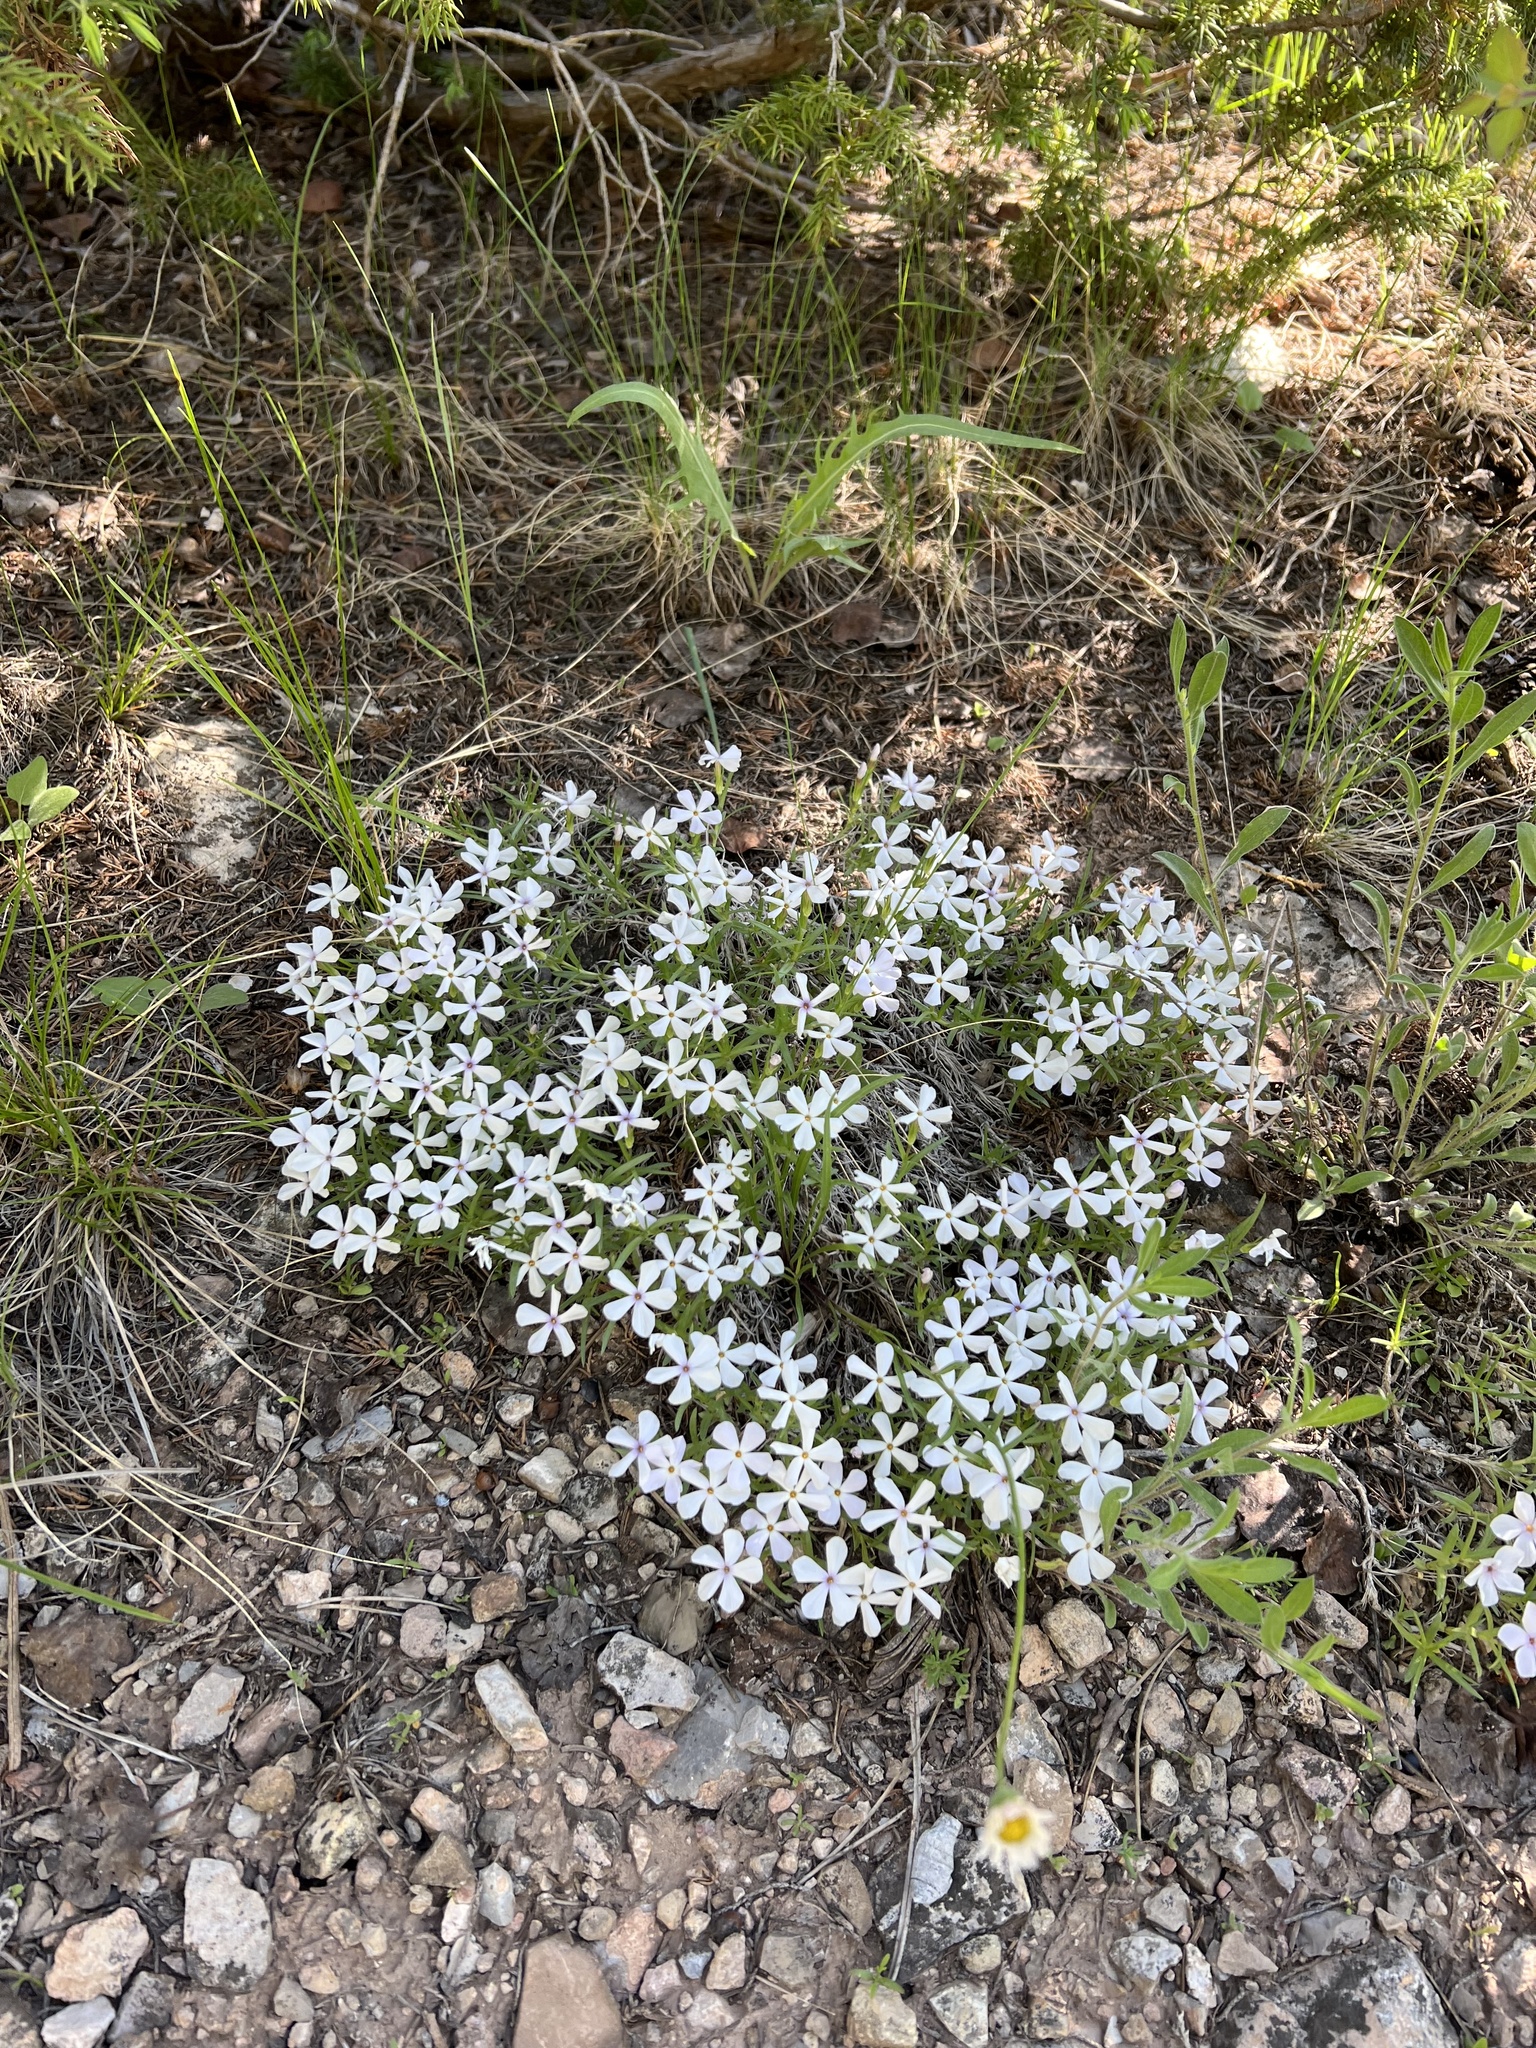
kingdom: Plantae
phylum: Tracheophyta
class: Magnoliopsida
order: Ericales
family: Polemoniaceae
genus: Phlox
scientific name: Phlox multiflora
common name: Rocky mountain phlox
